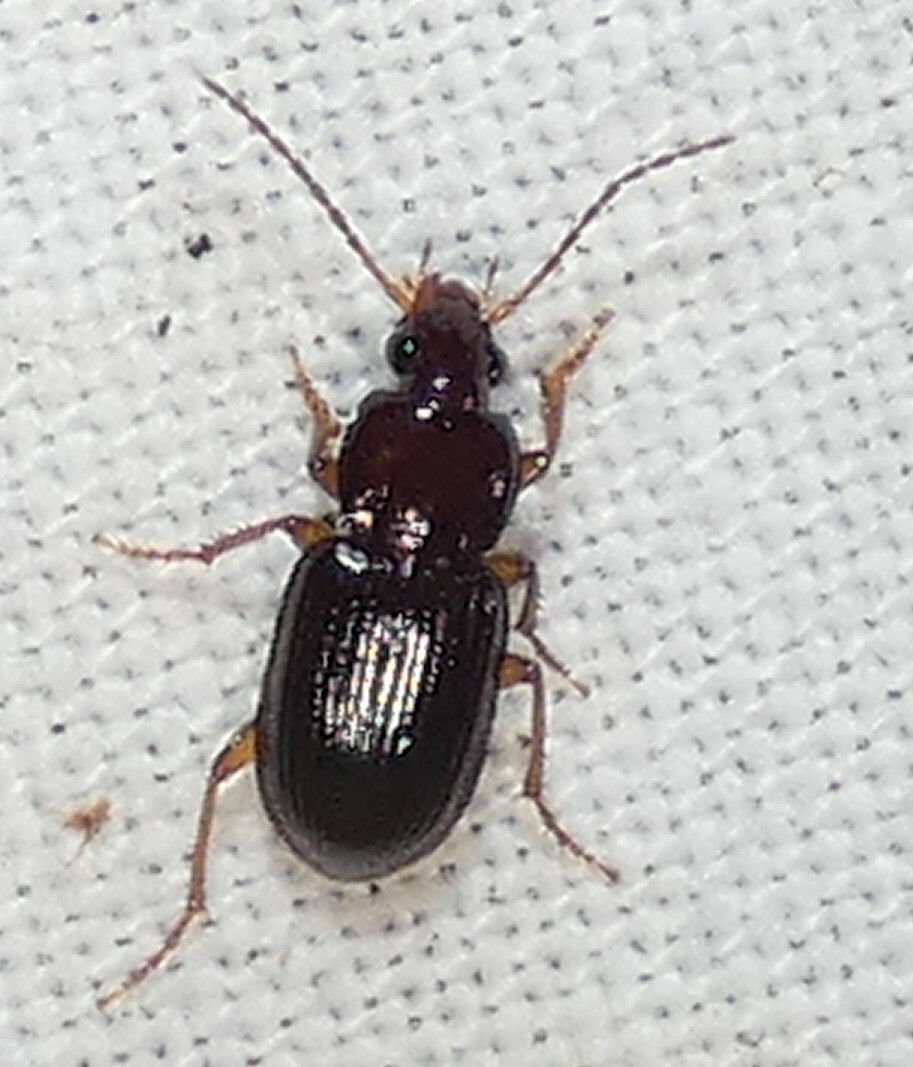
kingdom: Animalia
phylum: Arthropoda
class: Insecta
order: Coleoptera
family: Carabidae
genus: Oxycrepis
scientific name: Oxycrepis crenata
